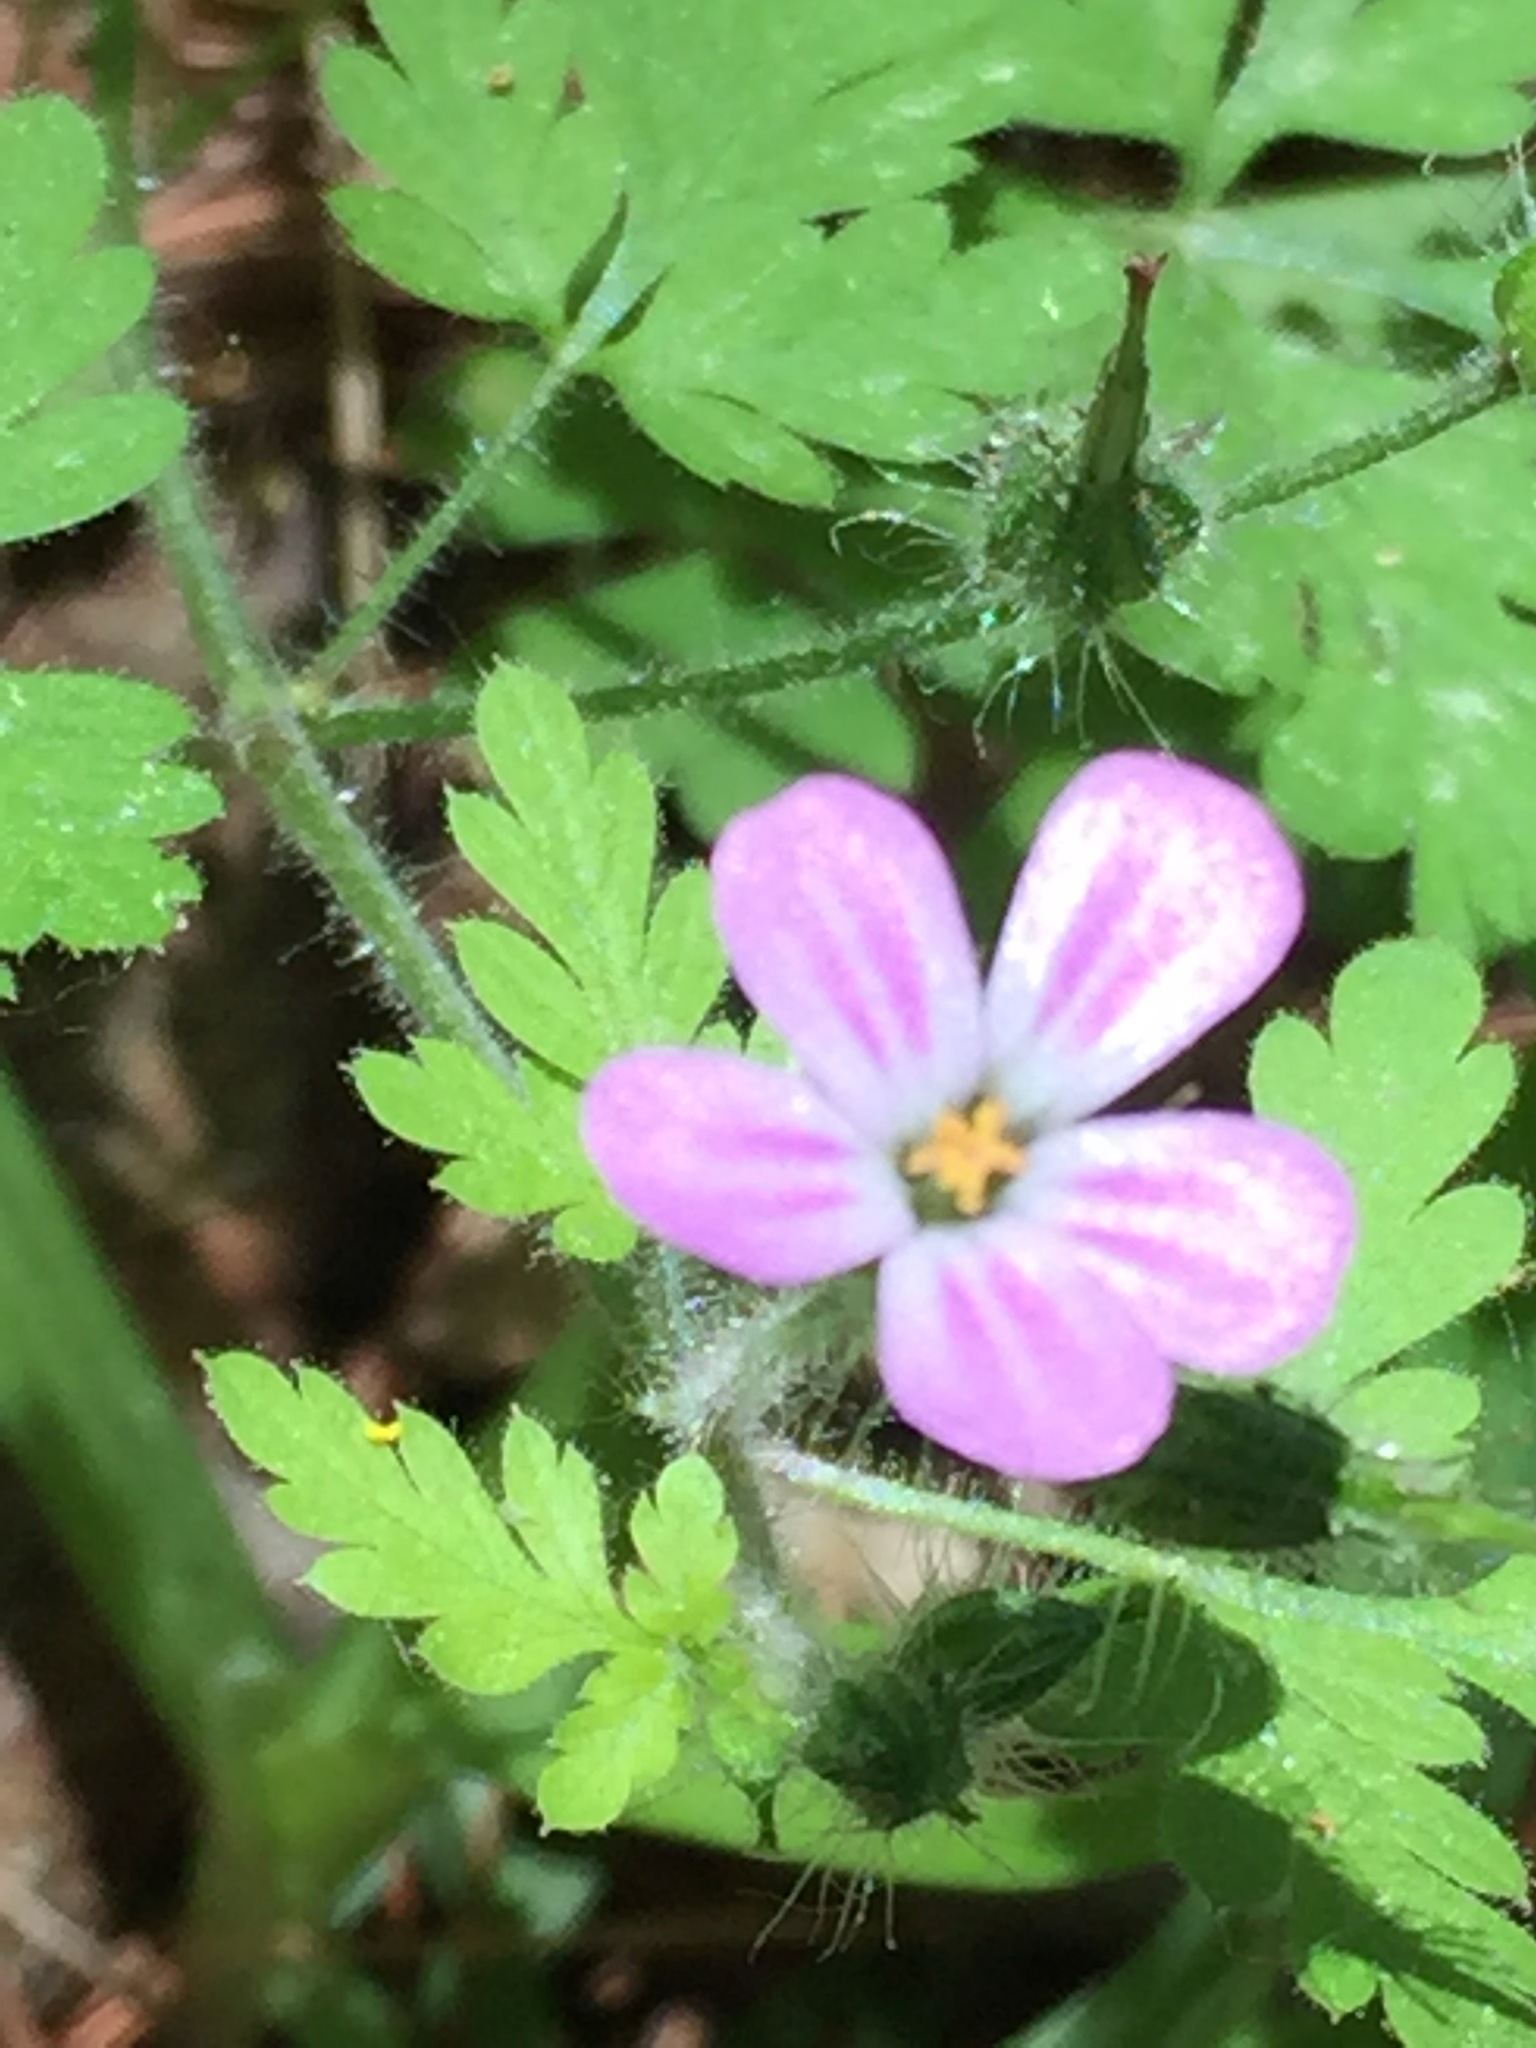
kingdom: Plantae
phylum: Tracheophyta
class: Magnoliopsida
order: Geraniales
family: Geraniaceae
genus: Geranium
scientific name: Geranium robertianum
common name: Herb-robert
